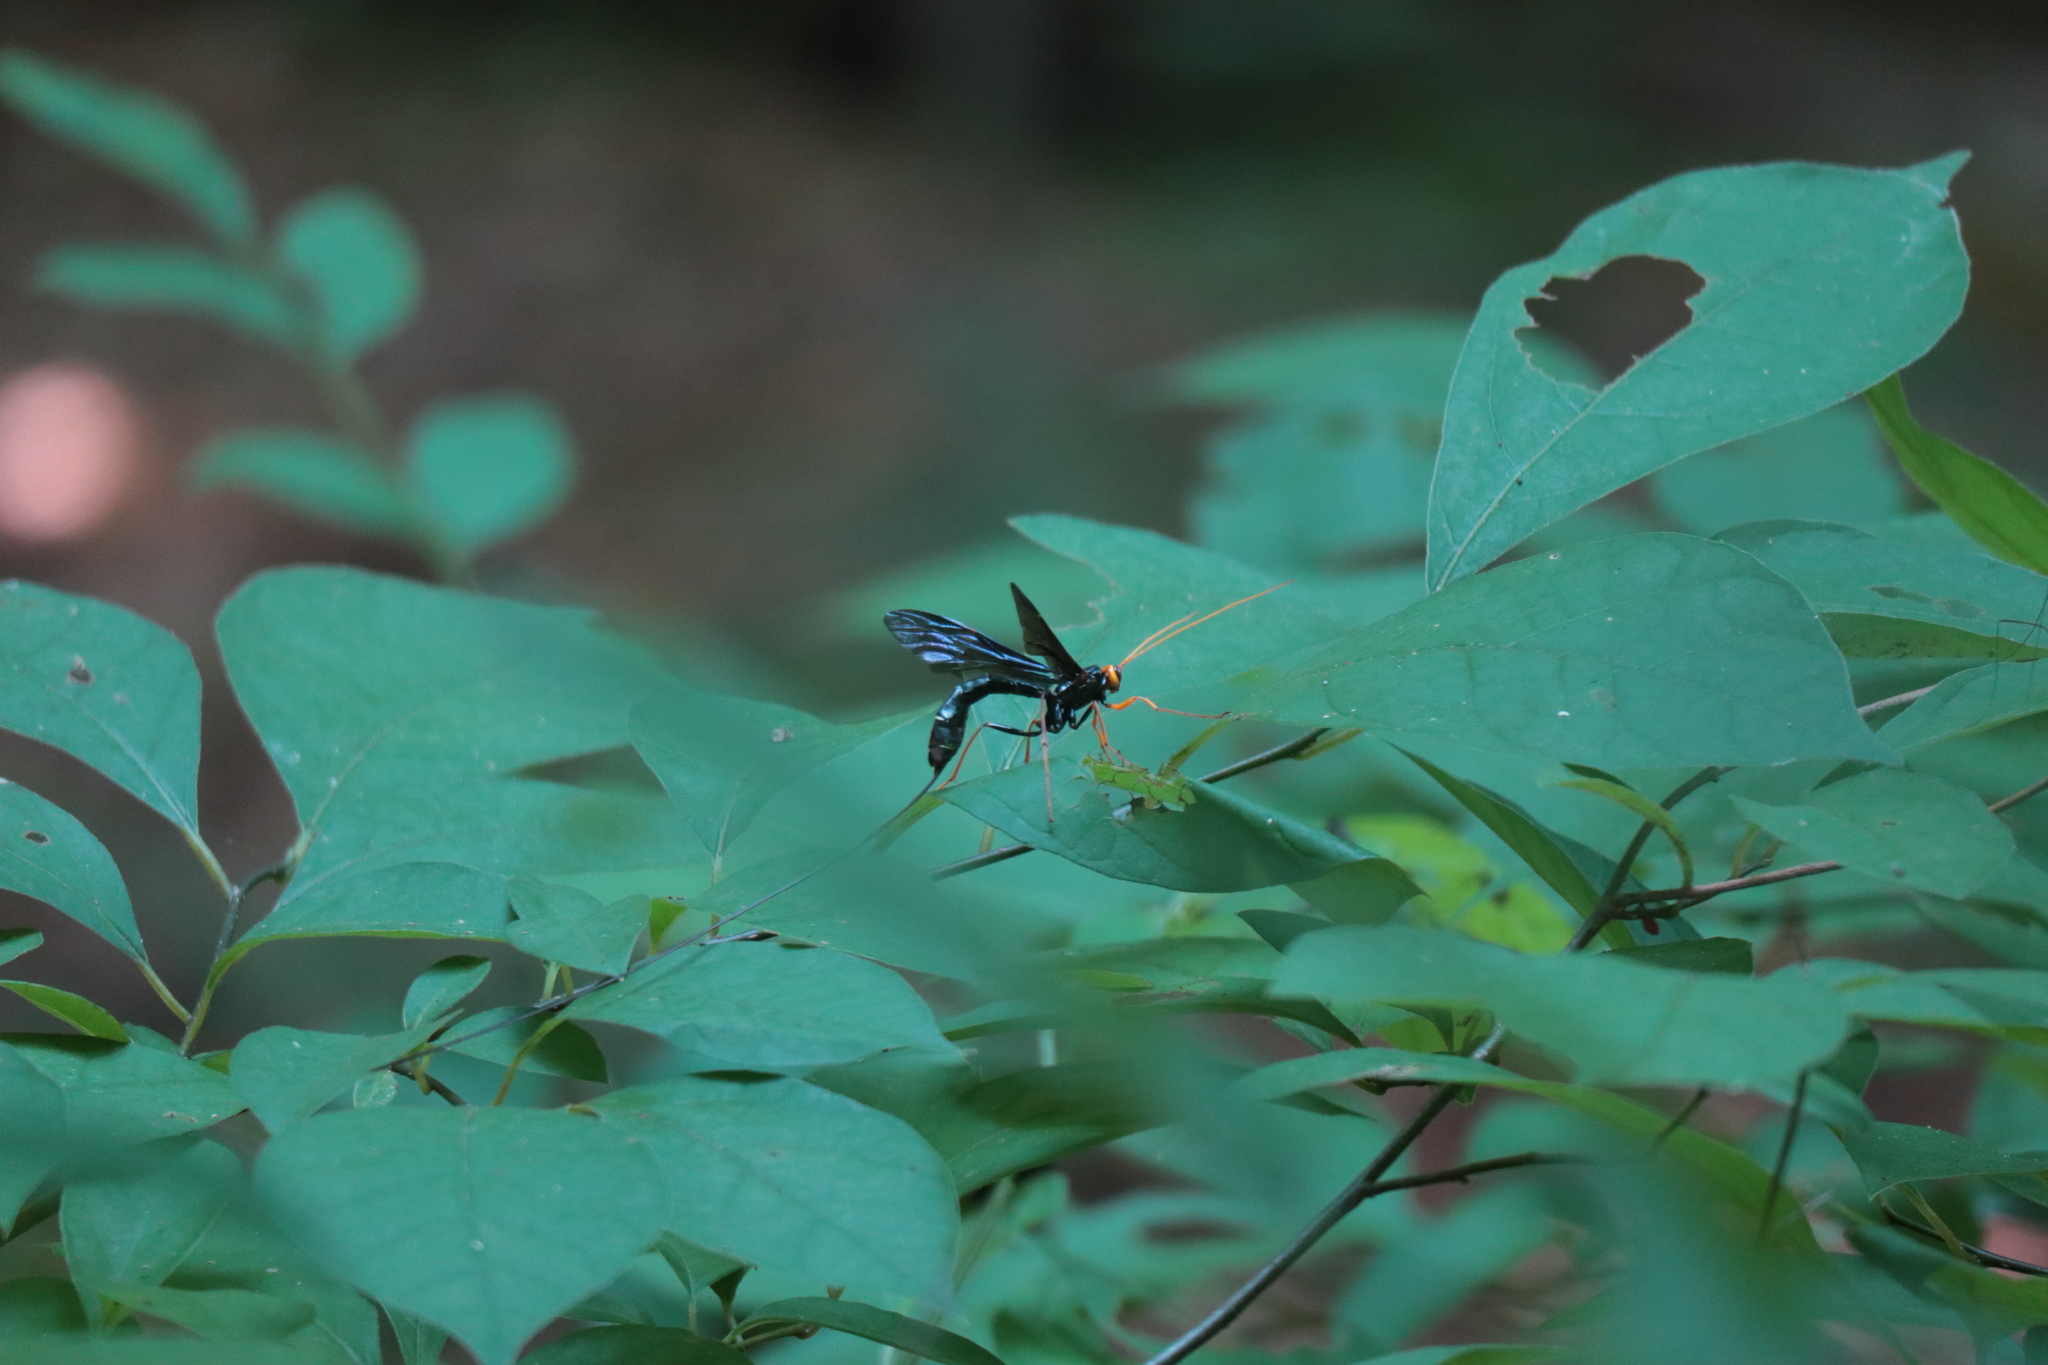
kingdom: Animalia
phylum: Arthropoda
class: Insecta
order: Hymenoptera
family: Ichneumonidae
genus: Megarhyssa
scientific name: Megarhyssa atrata
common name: Black giant ichneumonid wasp
